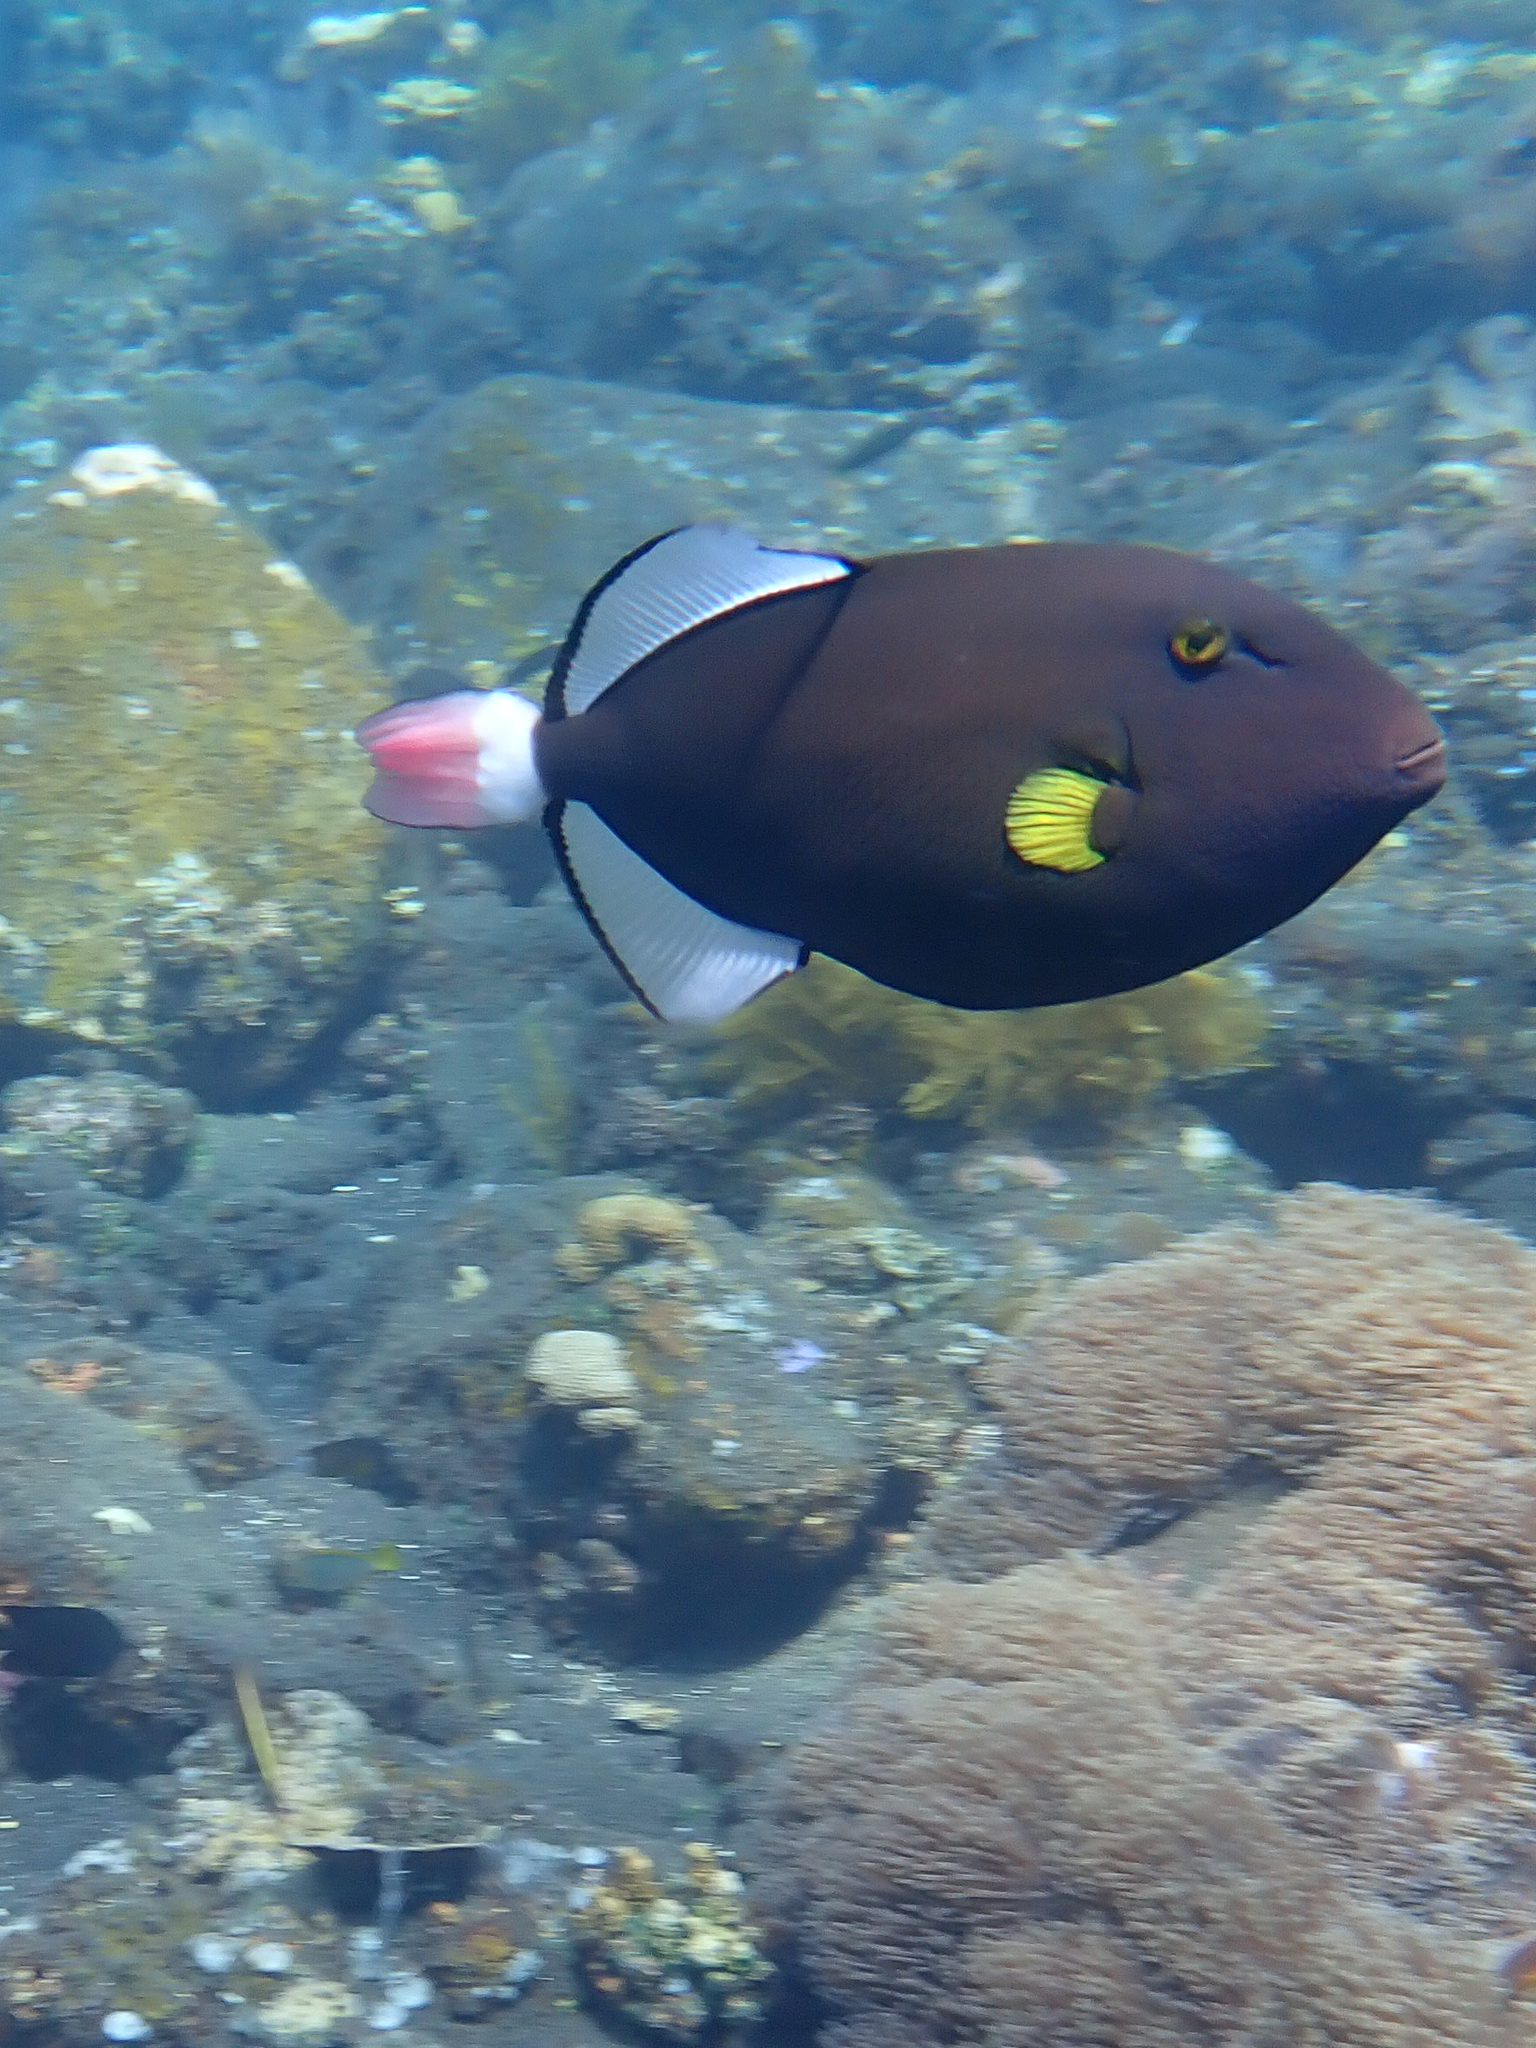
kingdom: Animalia
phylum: Chordata
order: Tetraodontiformes
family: Balistidae
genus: Melichthys
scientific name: Melichthys vidua
